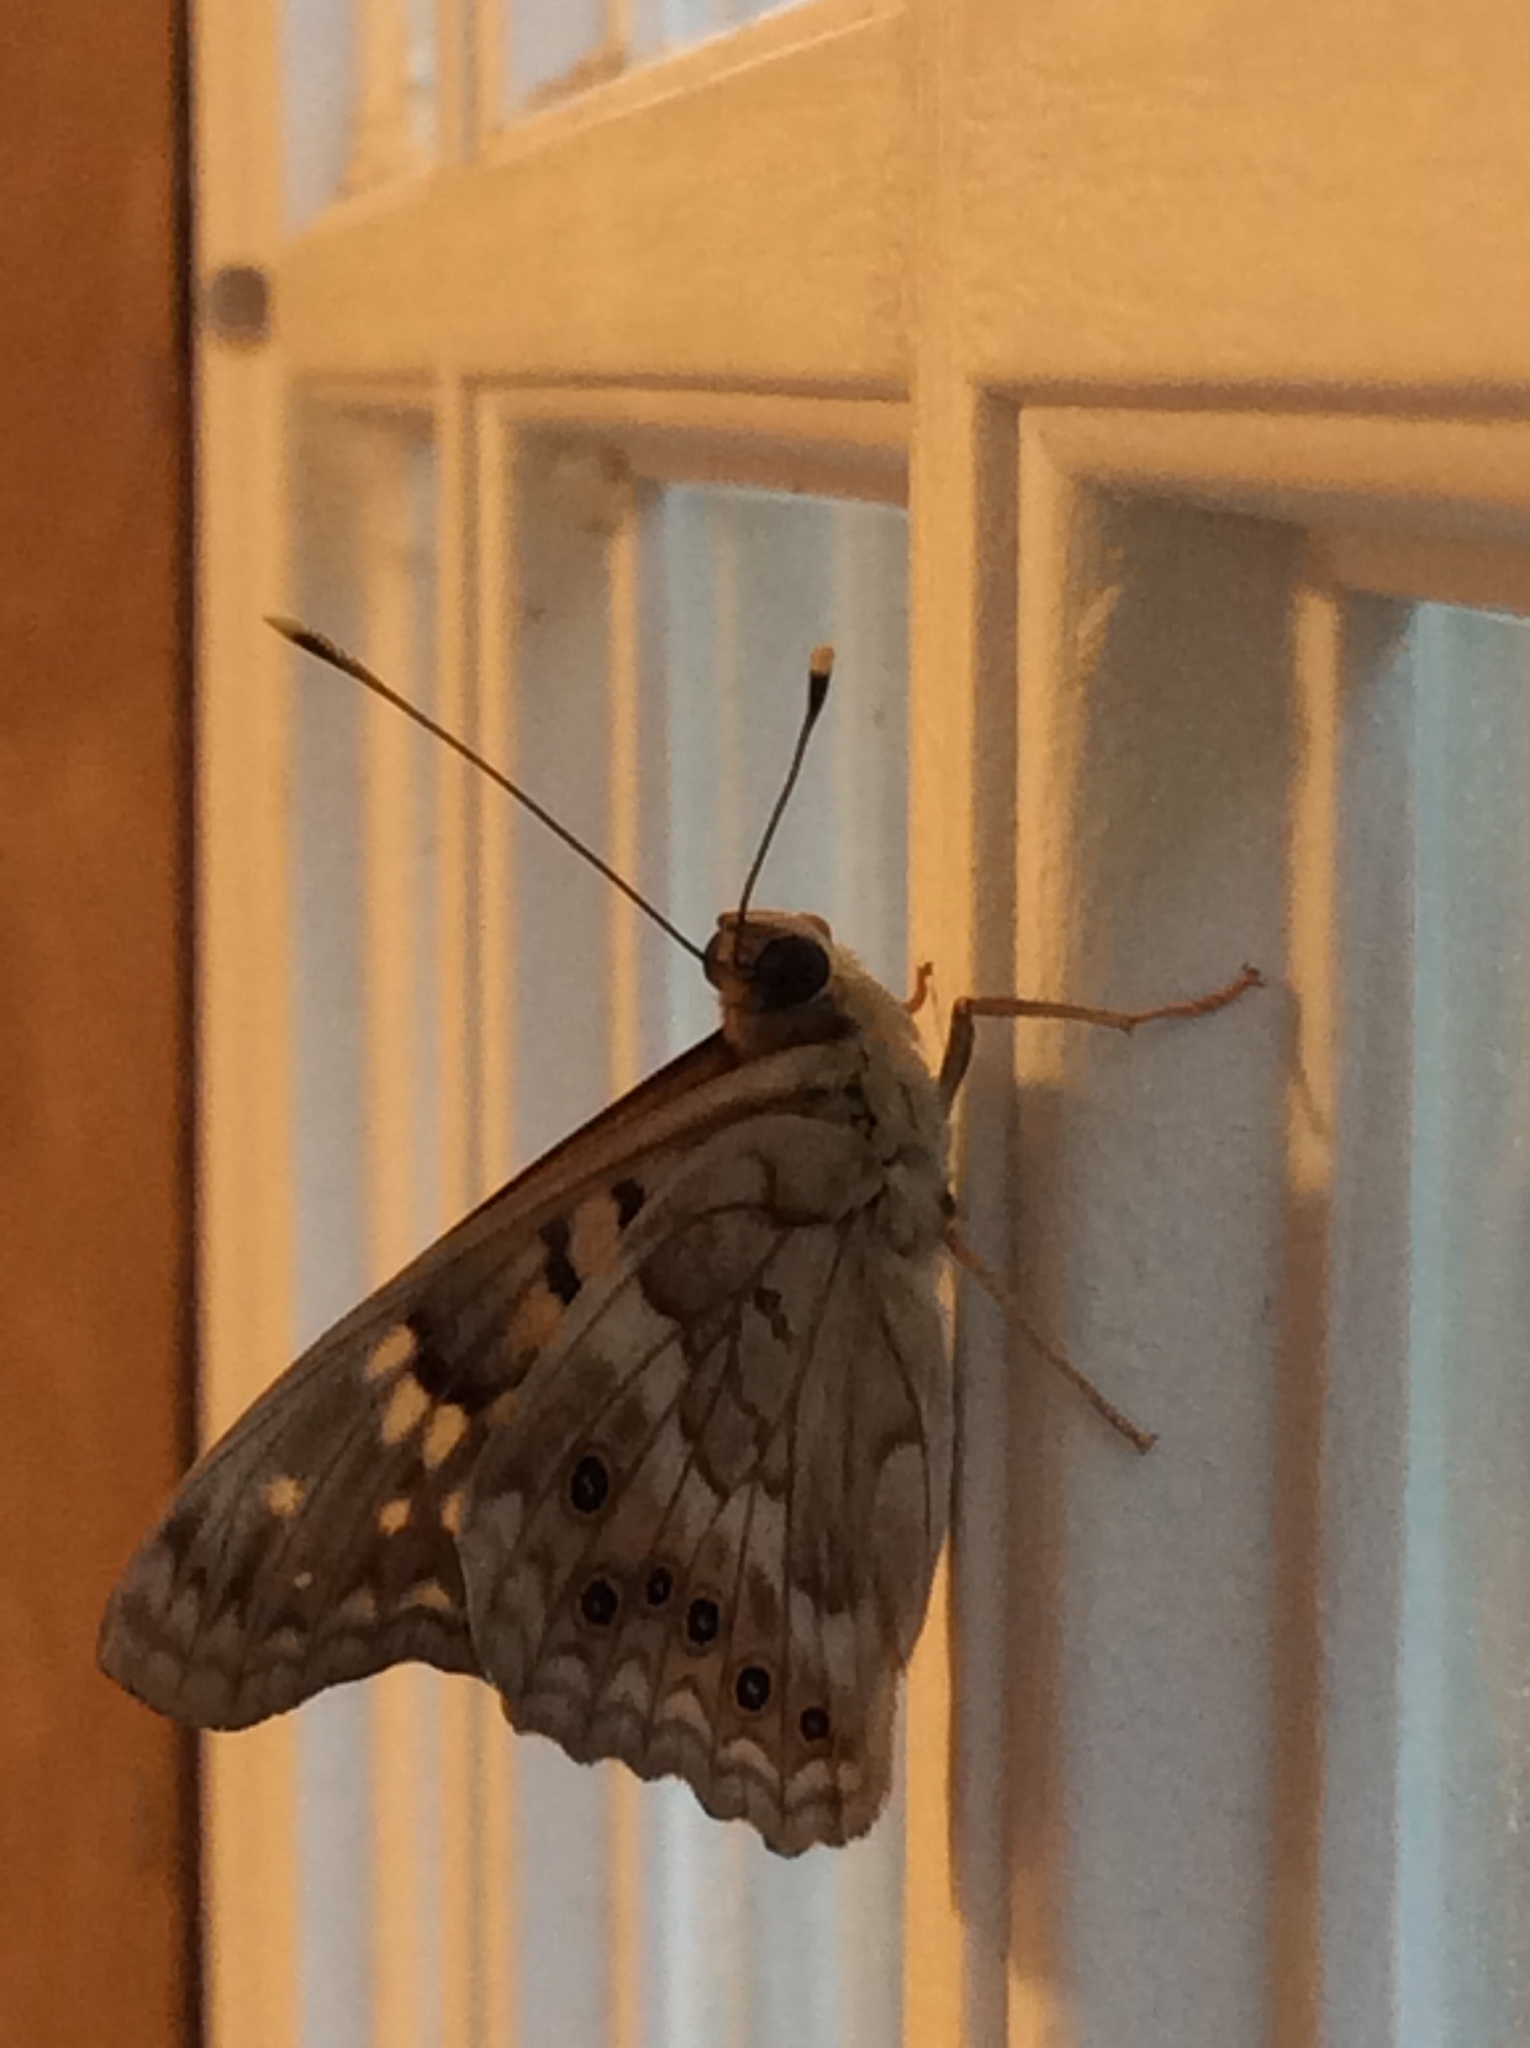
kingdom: Animalia
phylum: Arthropoda
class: Insecta
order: Lepidoptera
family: Nymphalidae
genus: Asterocampa
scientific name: Asterocampa clyton
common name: Tawny emperor
